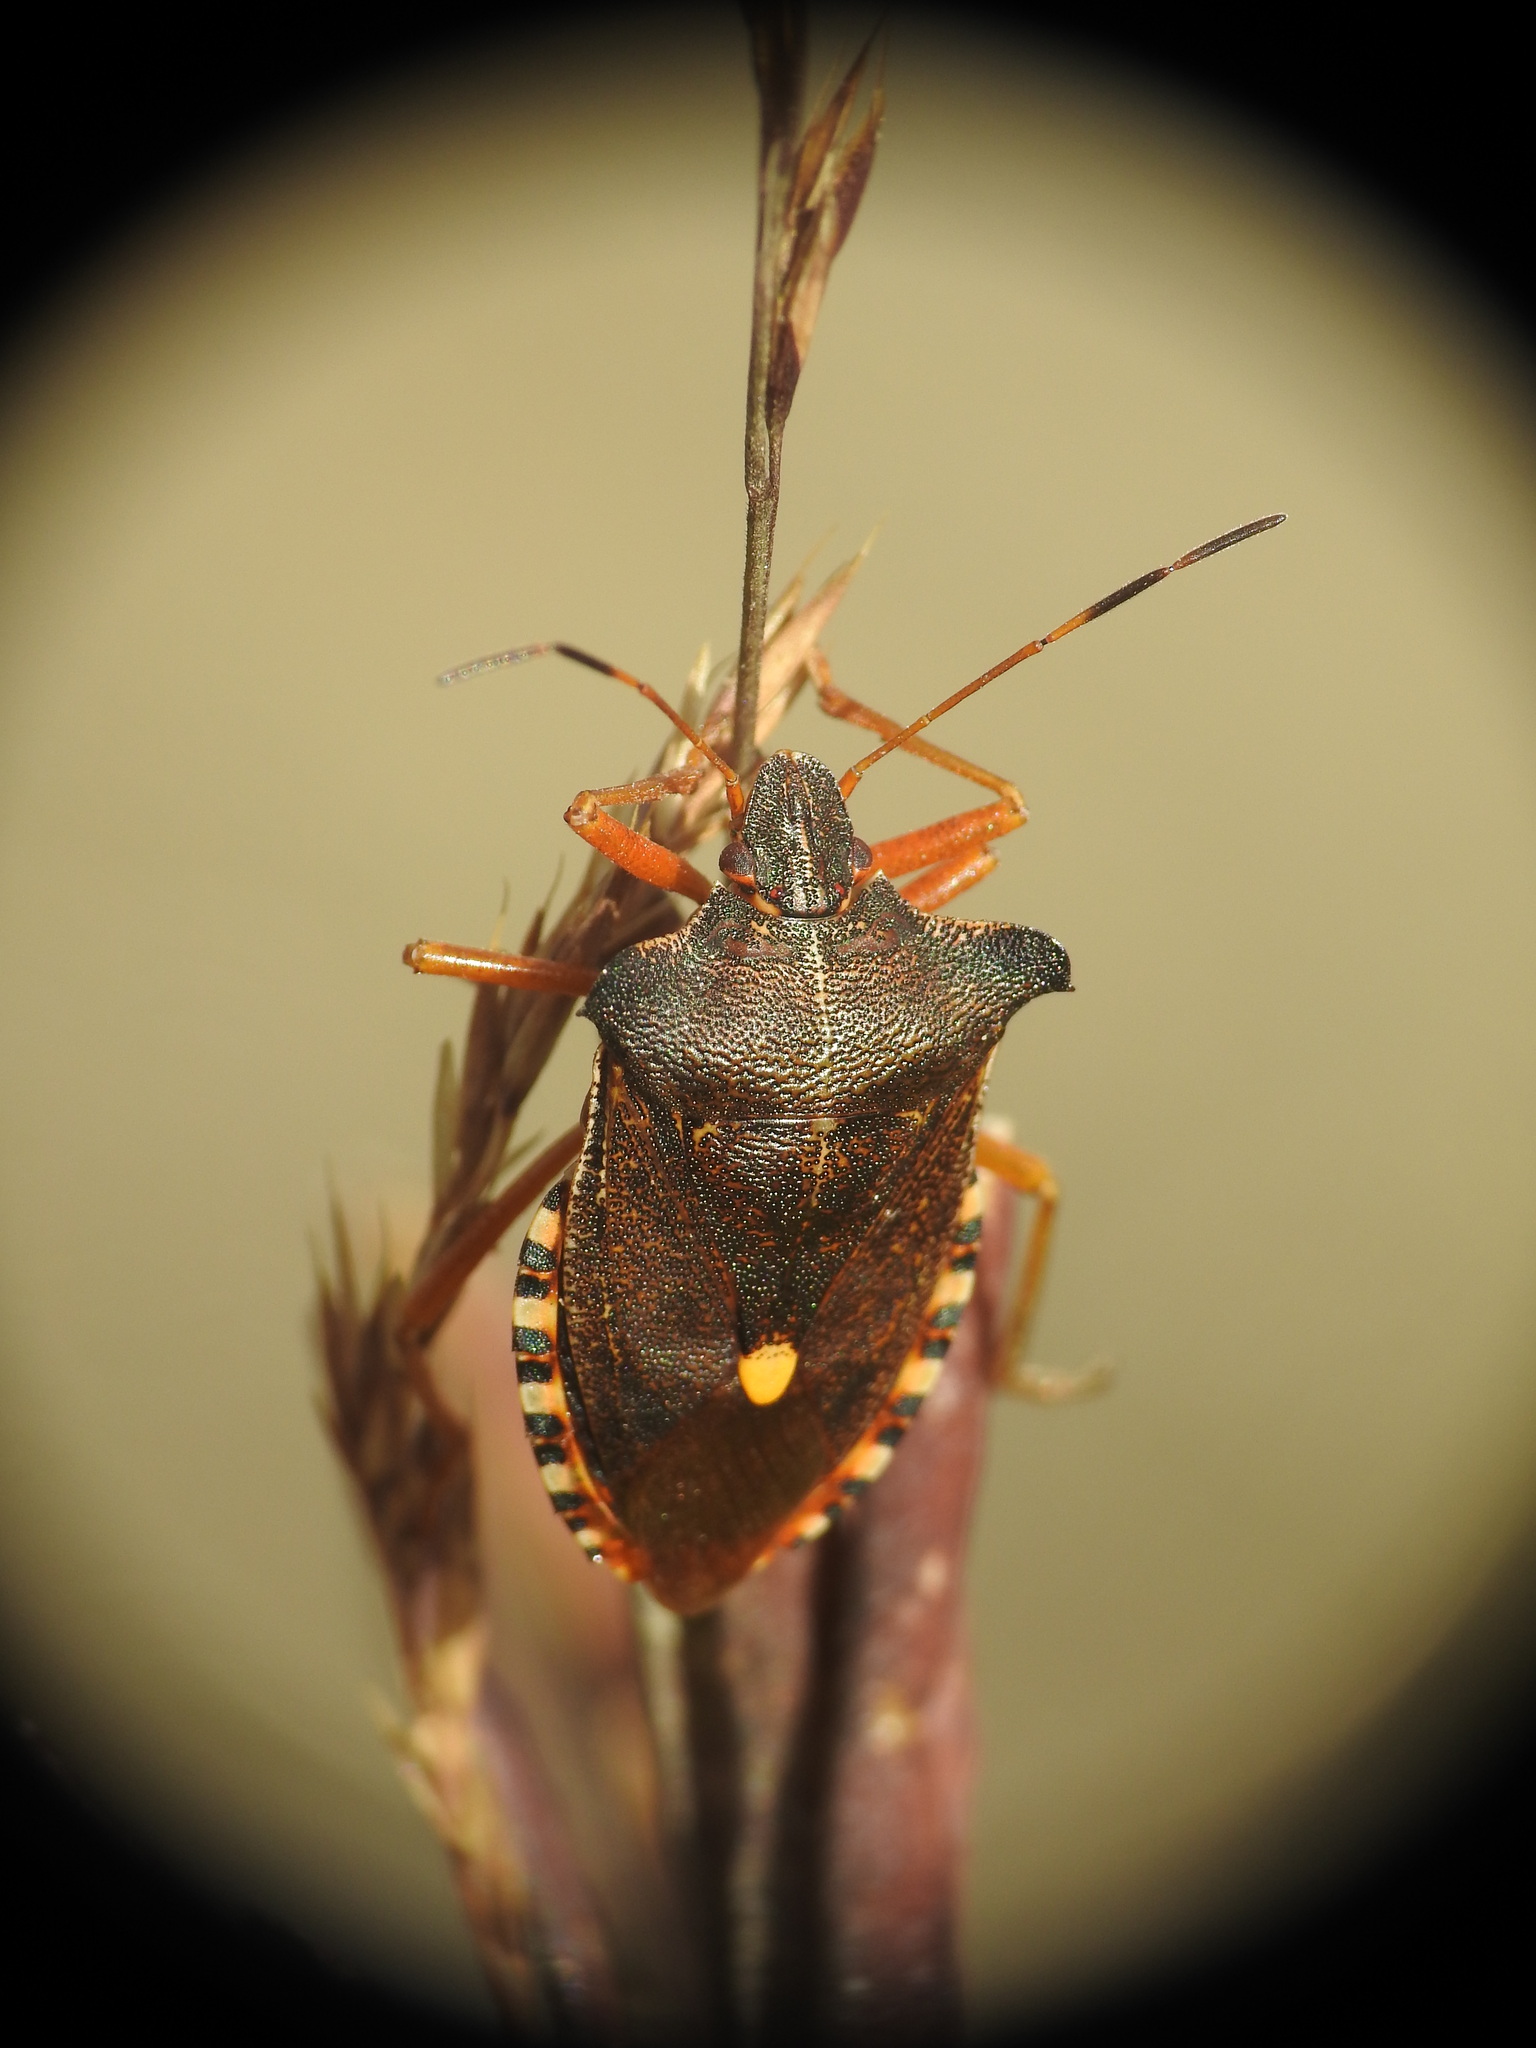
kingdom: Animalia
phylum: Arthropoda
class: Insecta
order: Hemiptera
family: Pentatomidae
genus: Pentatoma
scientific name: Pentatoma rufipes
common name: Forest bug
